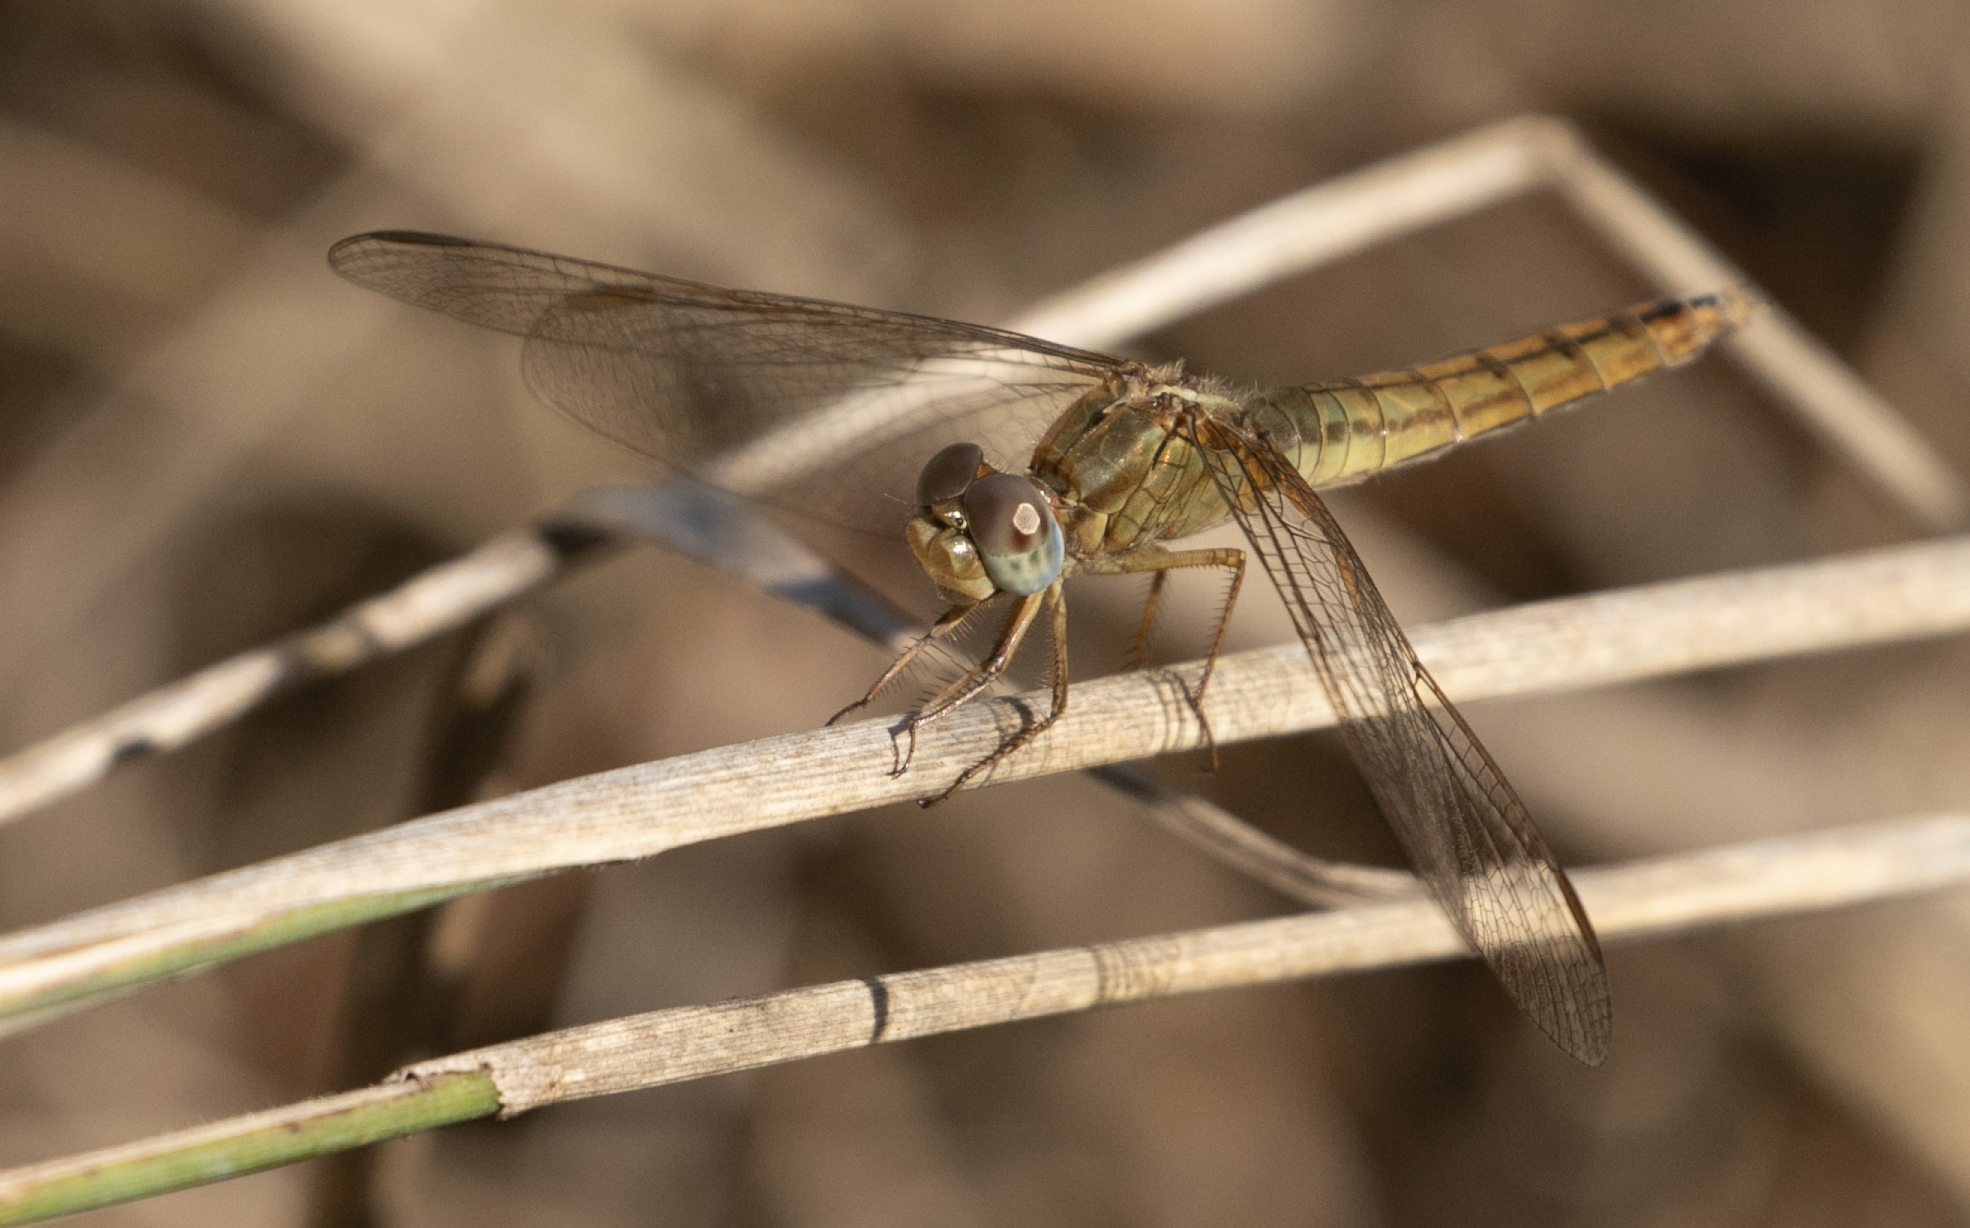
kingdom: Animalia
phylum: Arthropoda
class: Insecta
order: Odonata
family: Libellulidae
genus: Crocothemis
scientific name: Crocothemis erythraea
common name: Scarlet dragonfly
